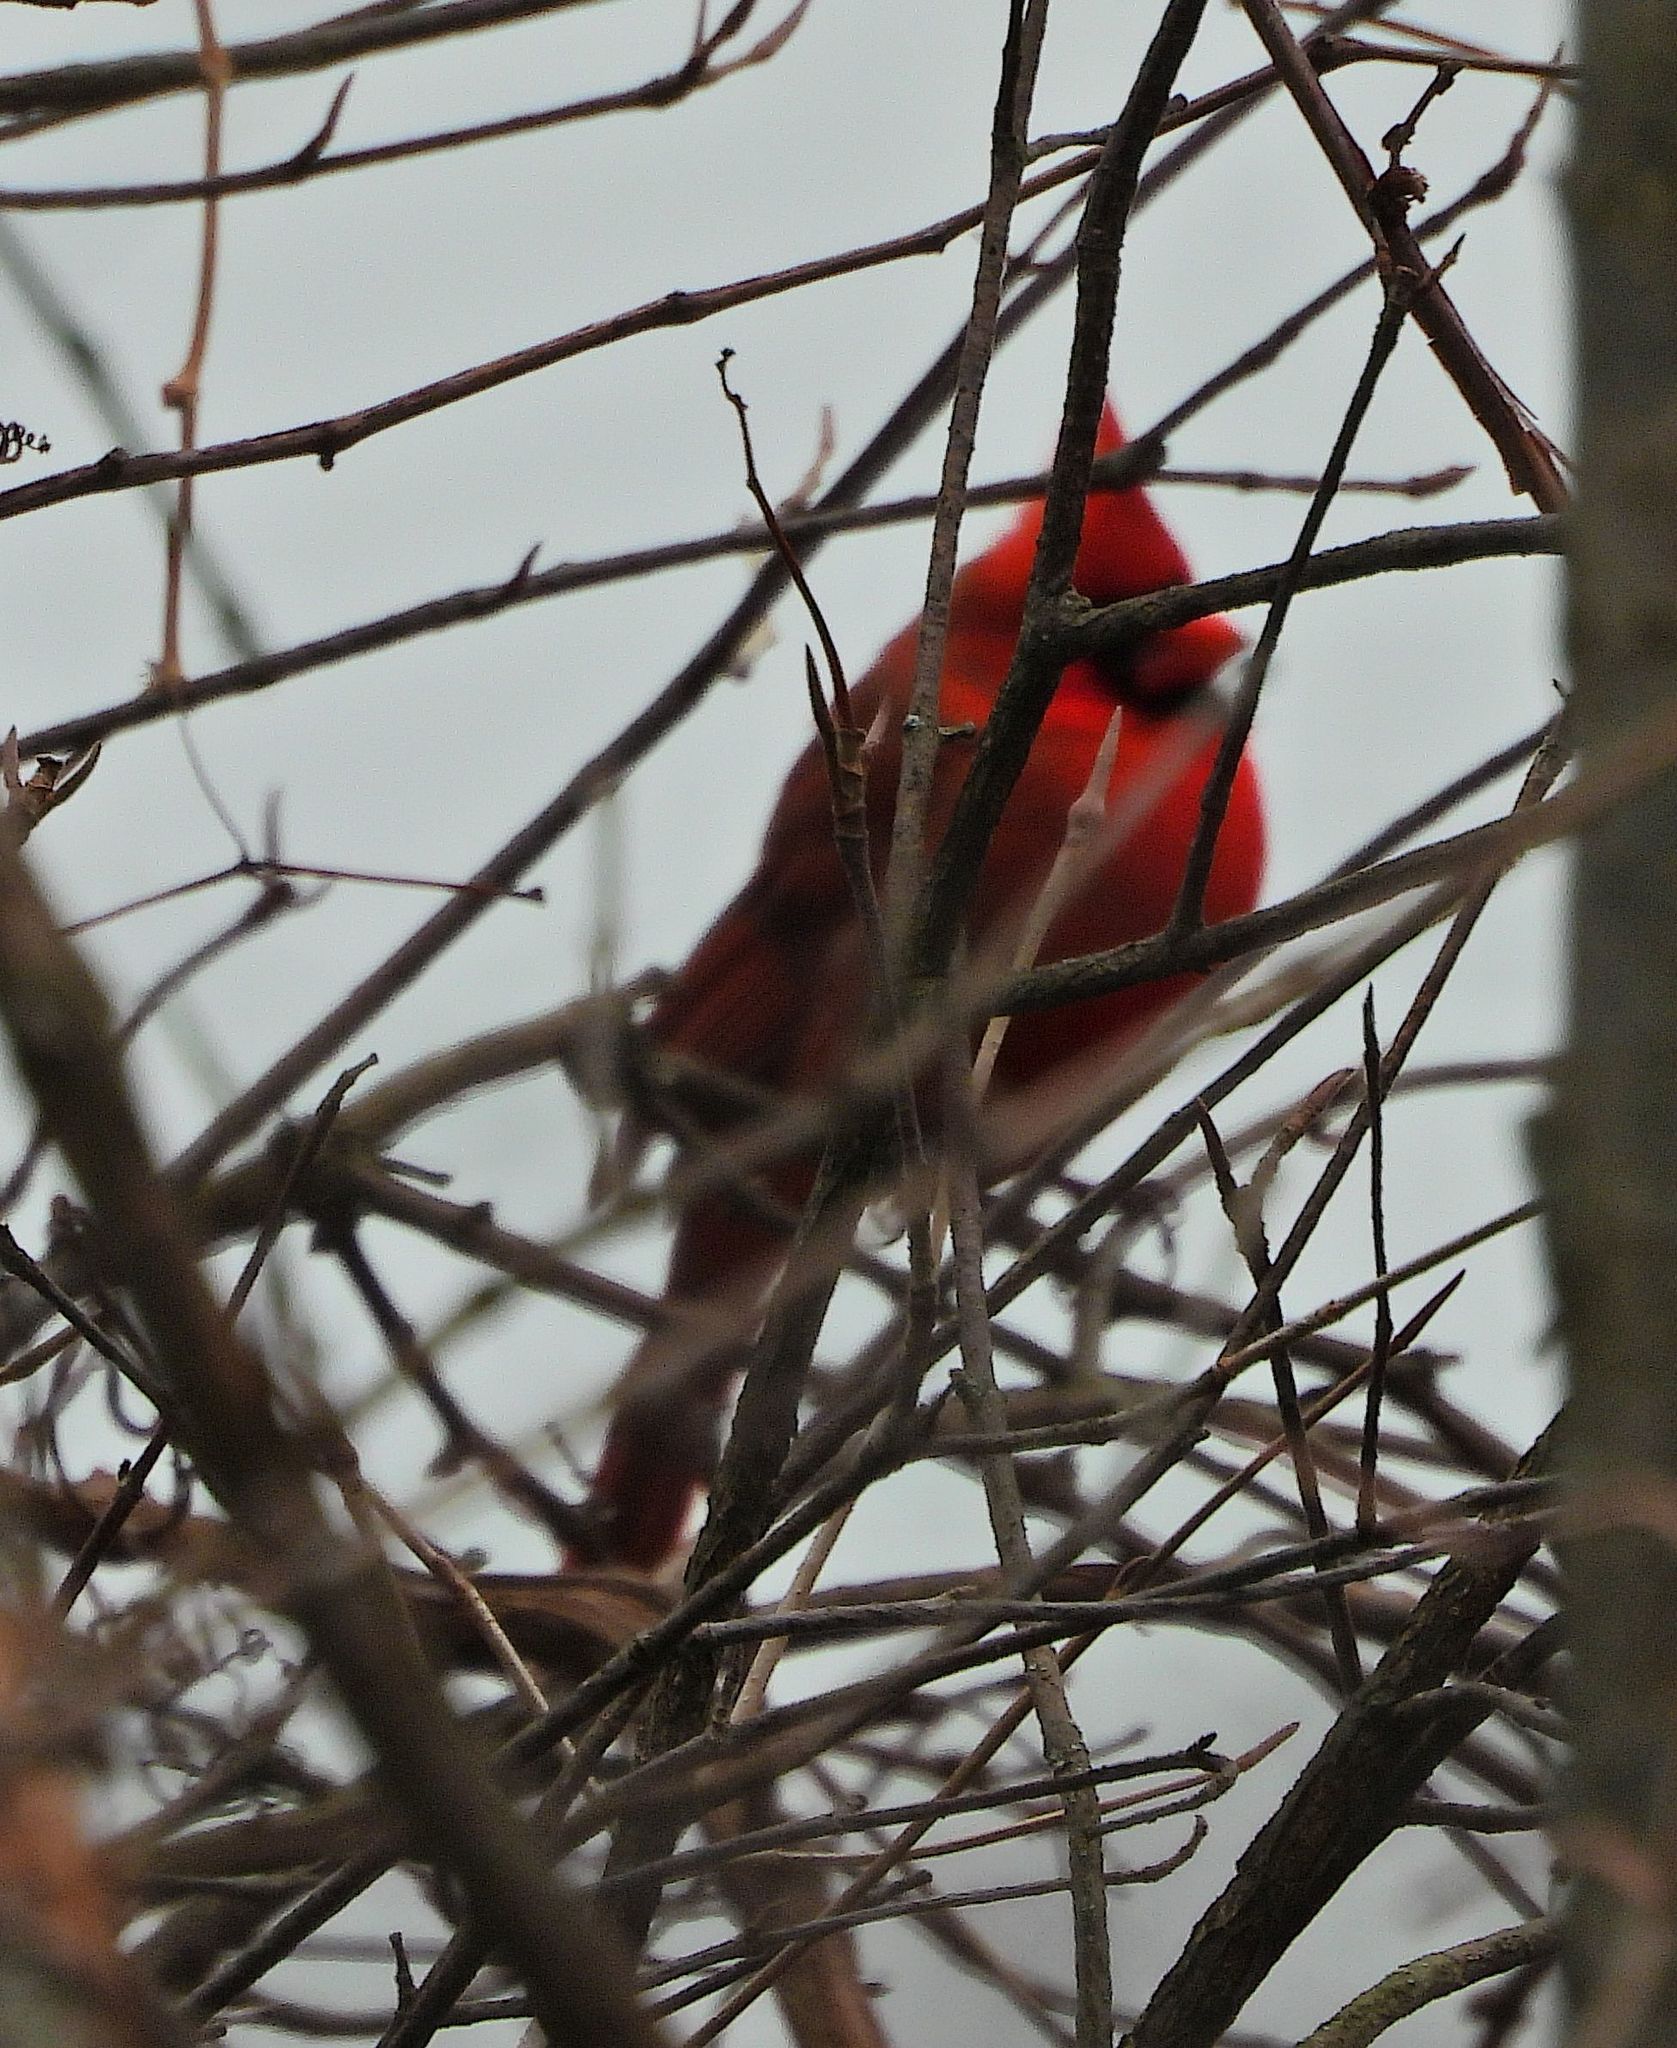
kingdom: Animalia
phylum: Chordata
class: Aves
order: Passeriformes
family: Cardinalidae
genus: Cardinalis
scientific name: Cardinalis cardinalis
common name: Northern cardinal
